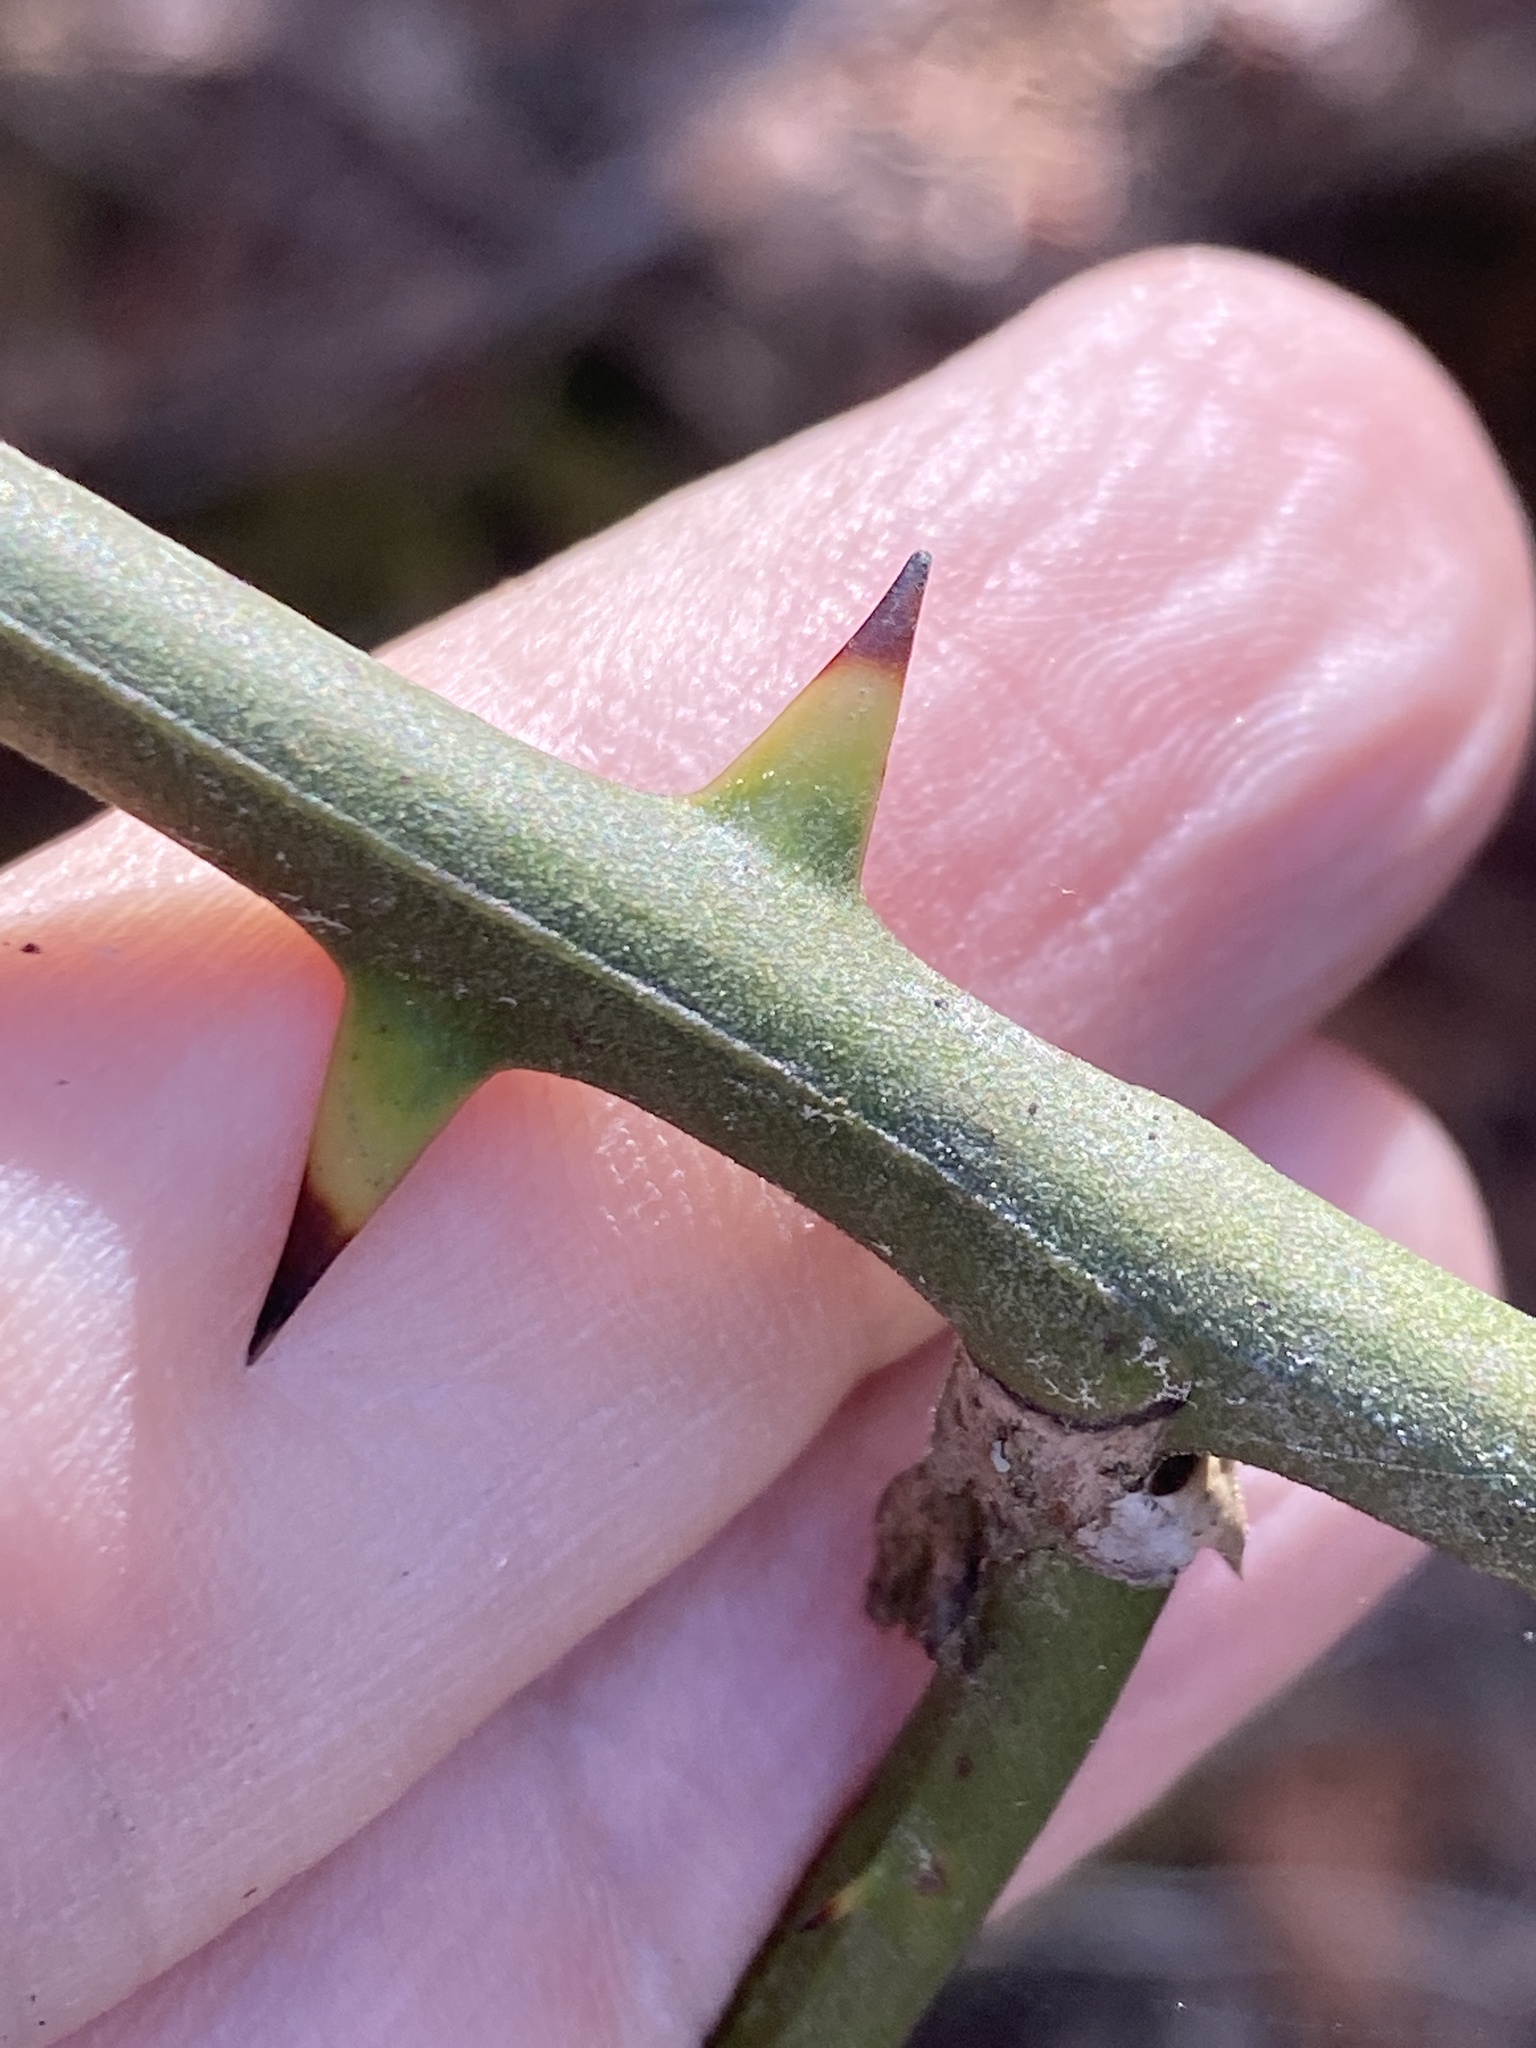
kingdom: Plantae
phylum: Tracheophyta
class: Liliopsida
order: Liliales
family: Smilacaceae
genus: Smilax
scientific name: Smilax bona-nox
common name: Catbrier
